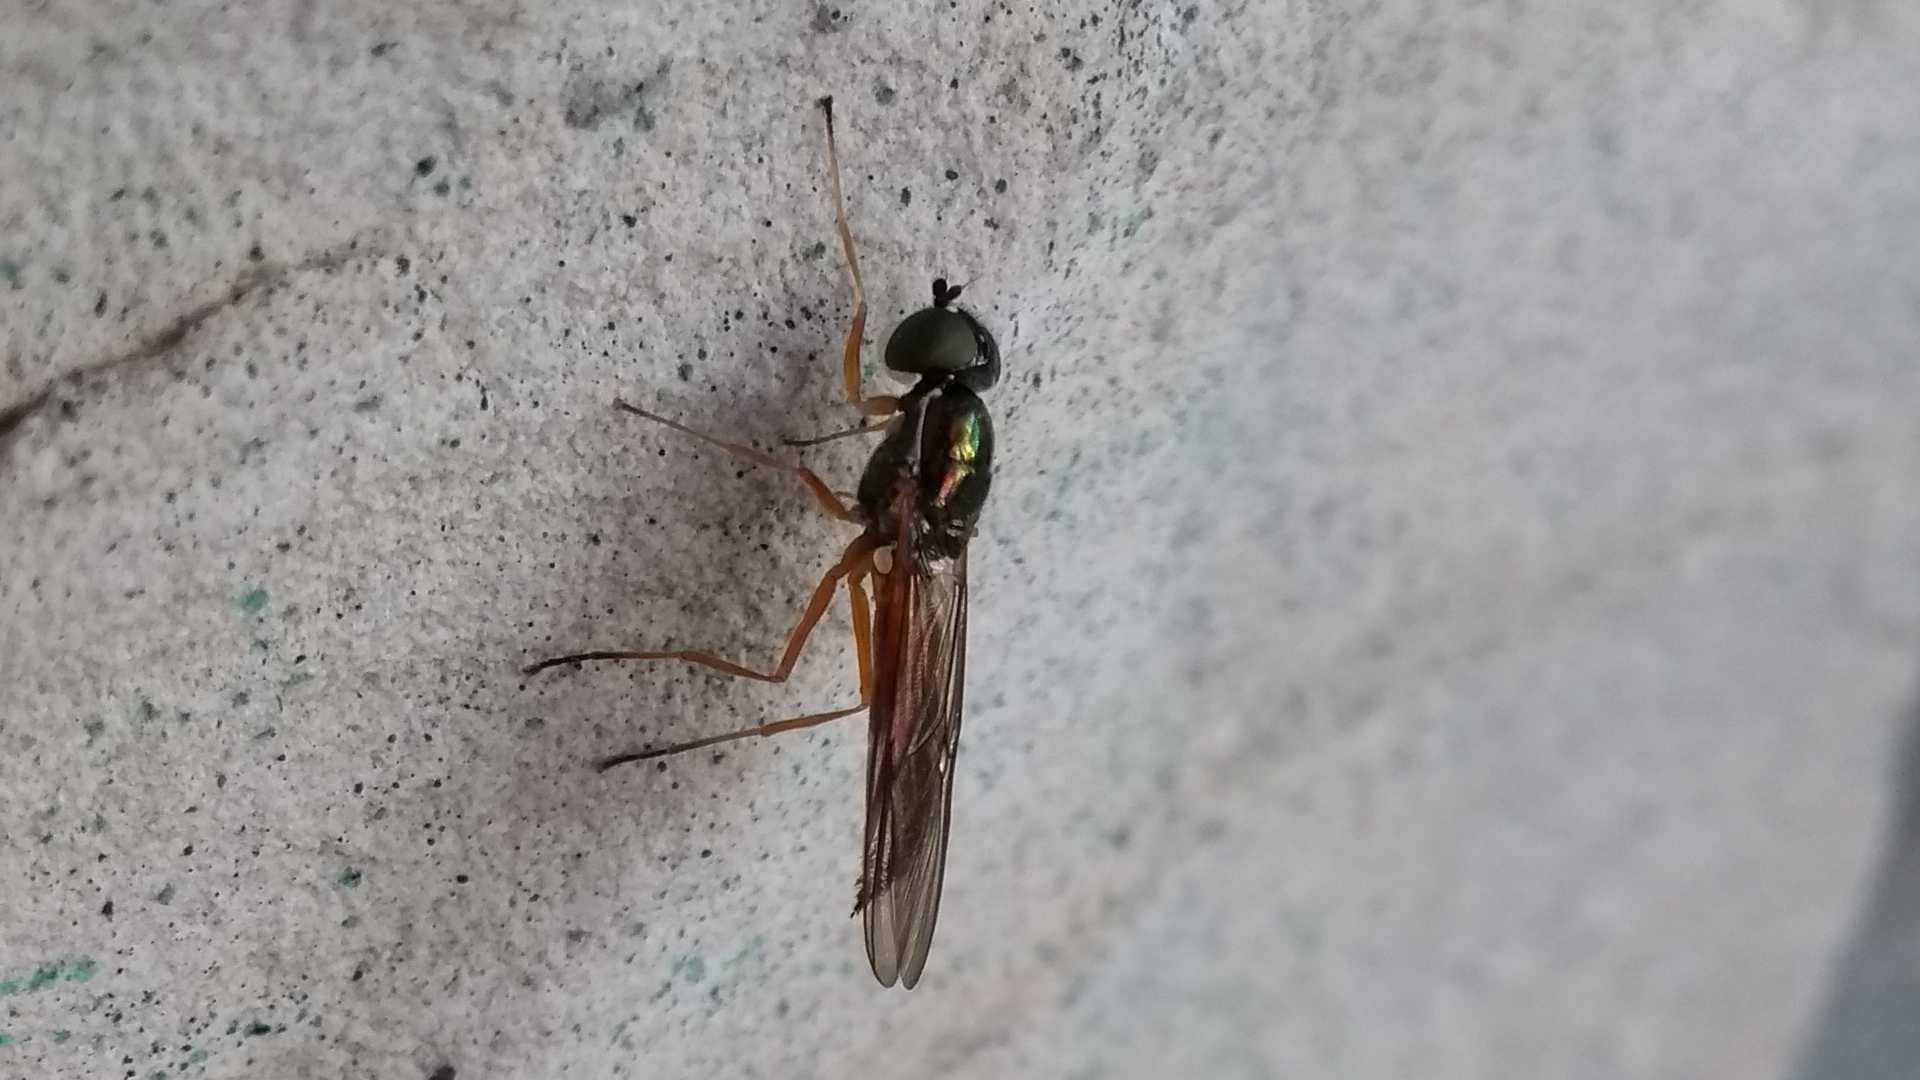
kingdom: Animalia
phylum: Arthropoda
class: Insecta
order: Diptera
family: Stratiomyidae
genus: Sargus
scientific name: Sargus bipunctatus
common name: Twin-spot centurion
